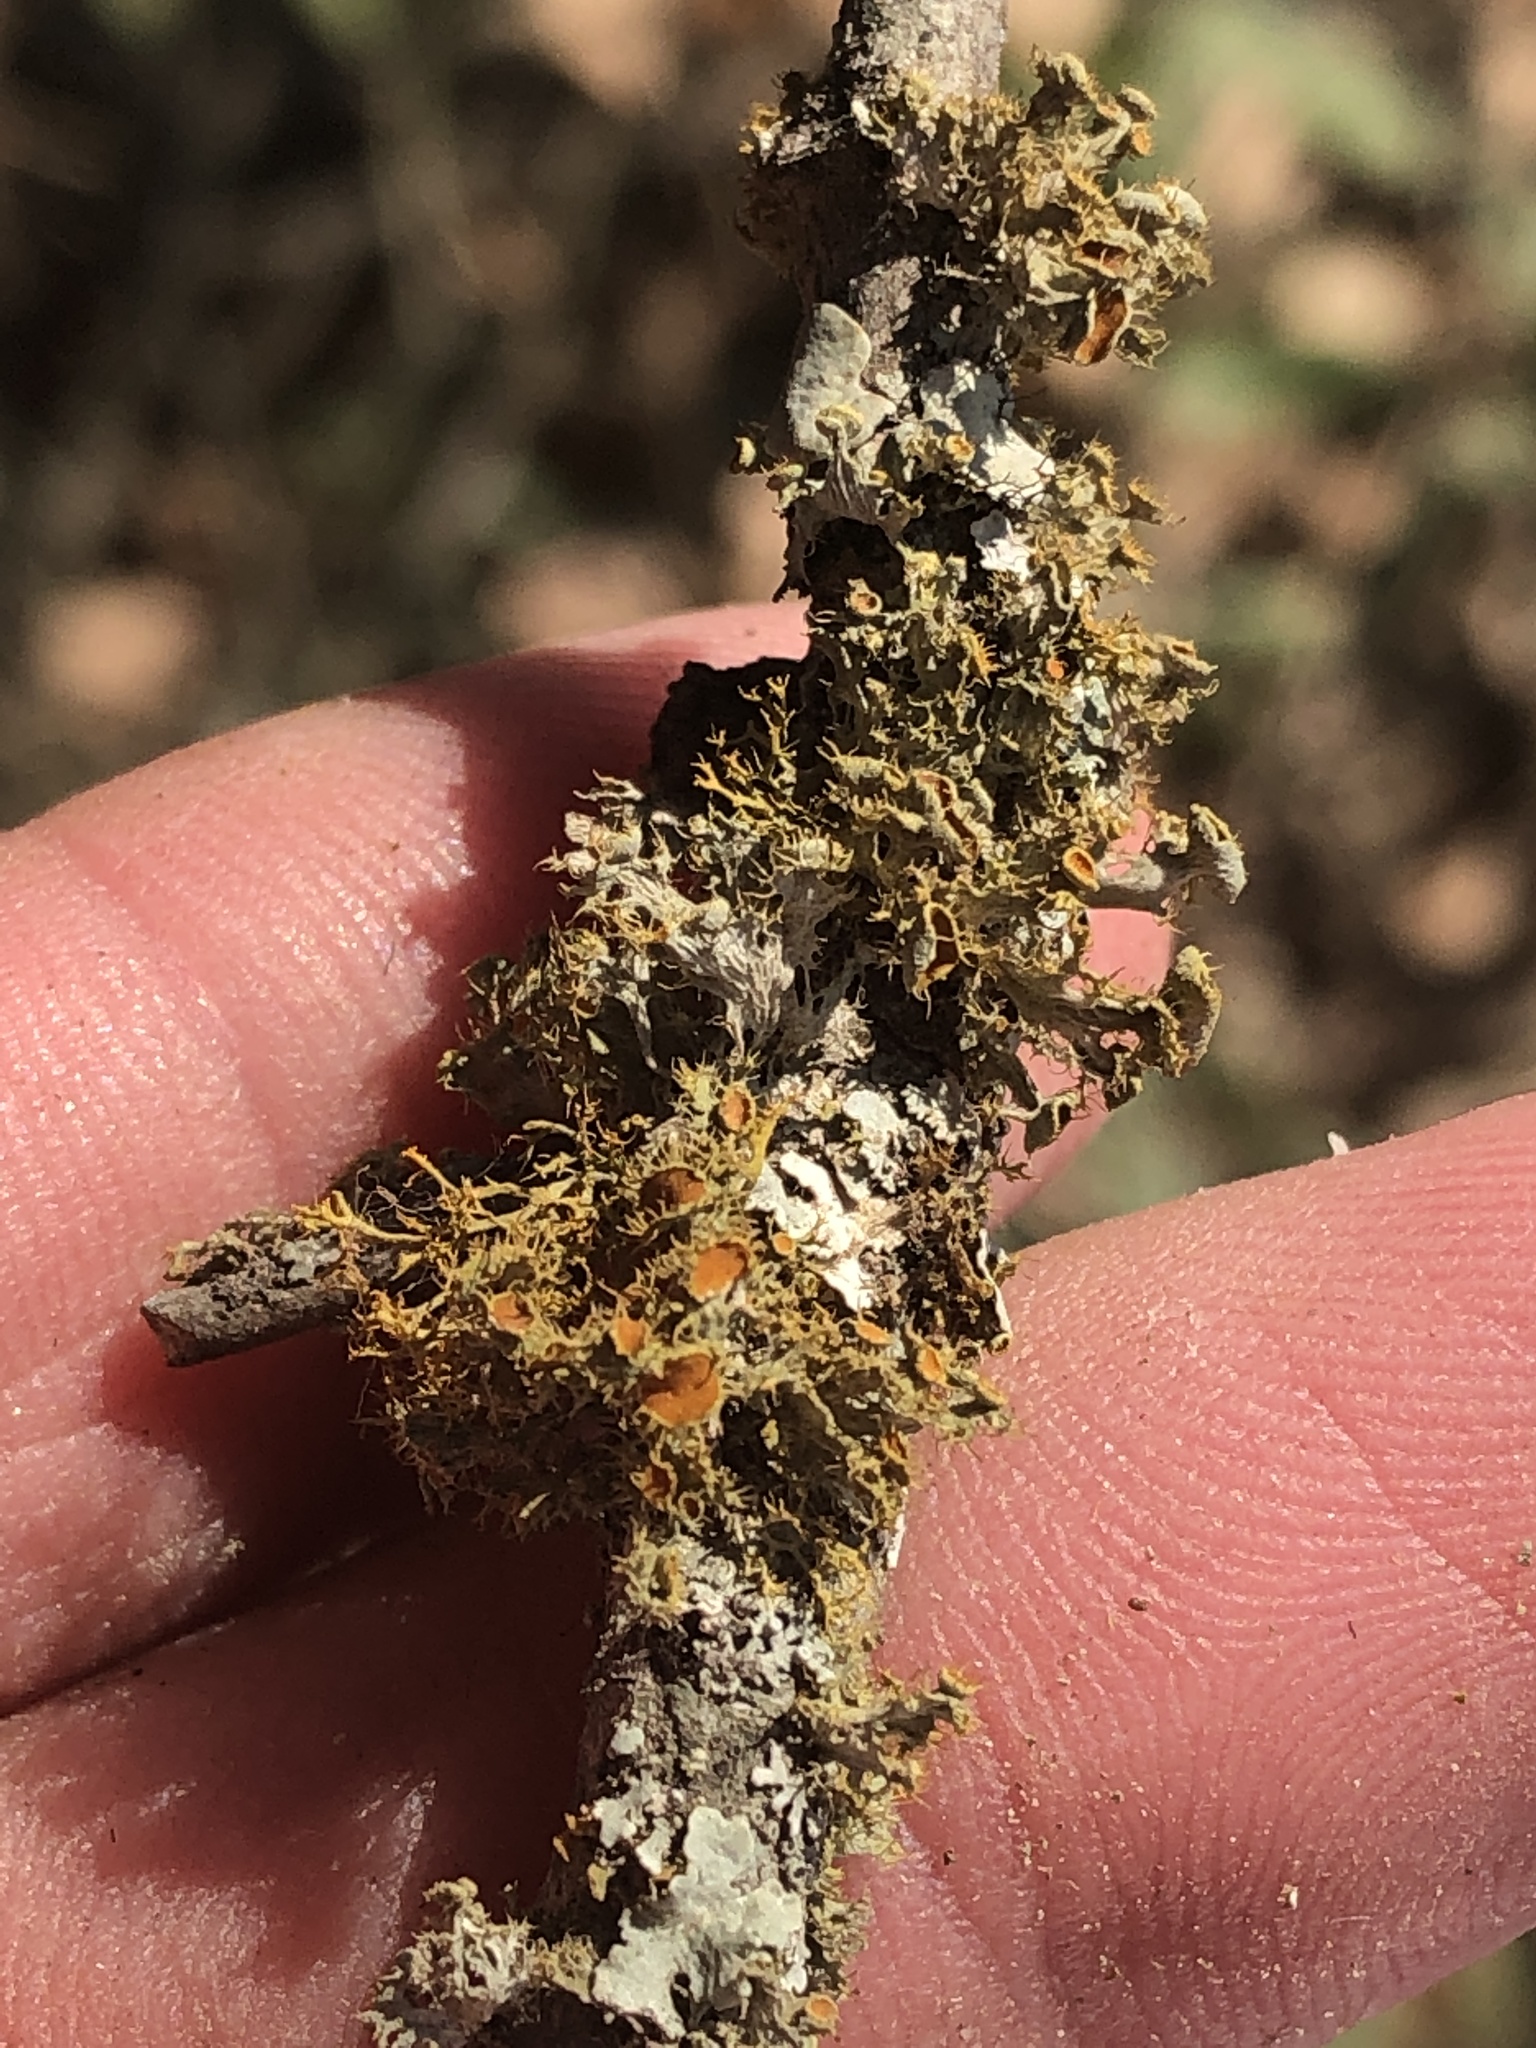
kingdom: Fungi
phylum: Ascomycota
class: Lecanoromycetes
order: Teloschistales
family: Teloschistaceae
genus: Niorma
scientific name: Niorma chrysophthalma
